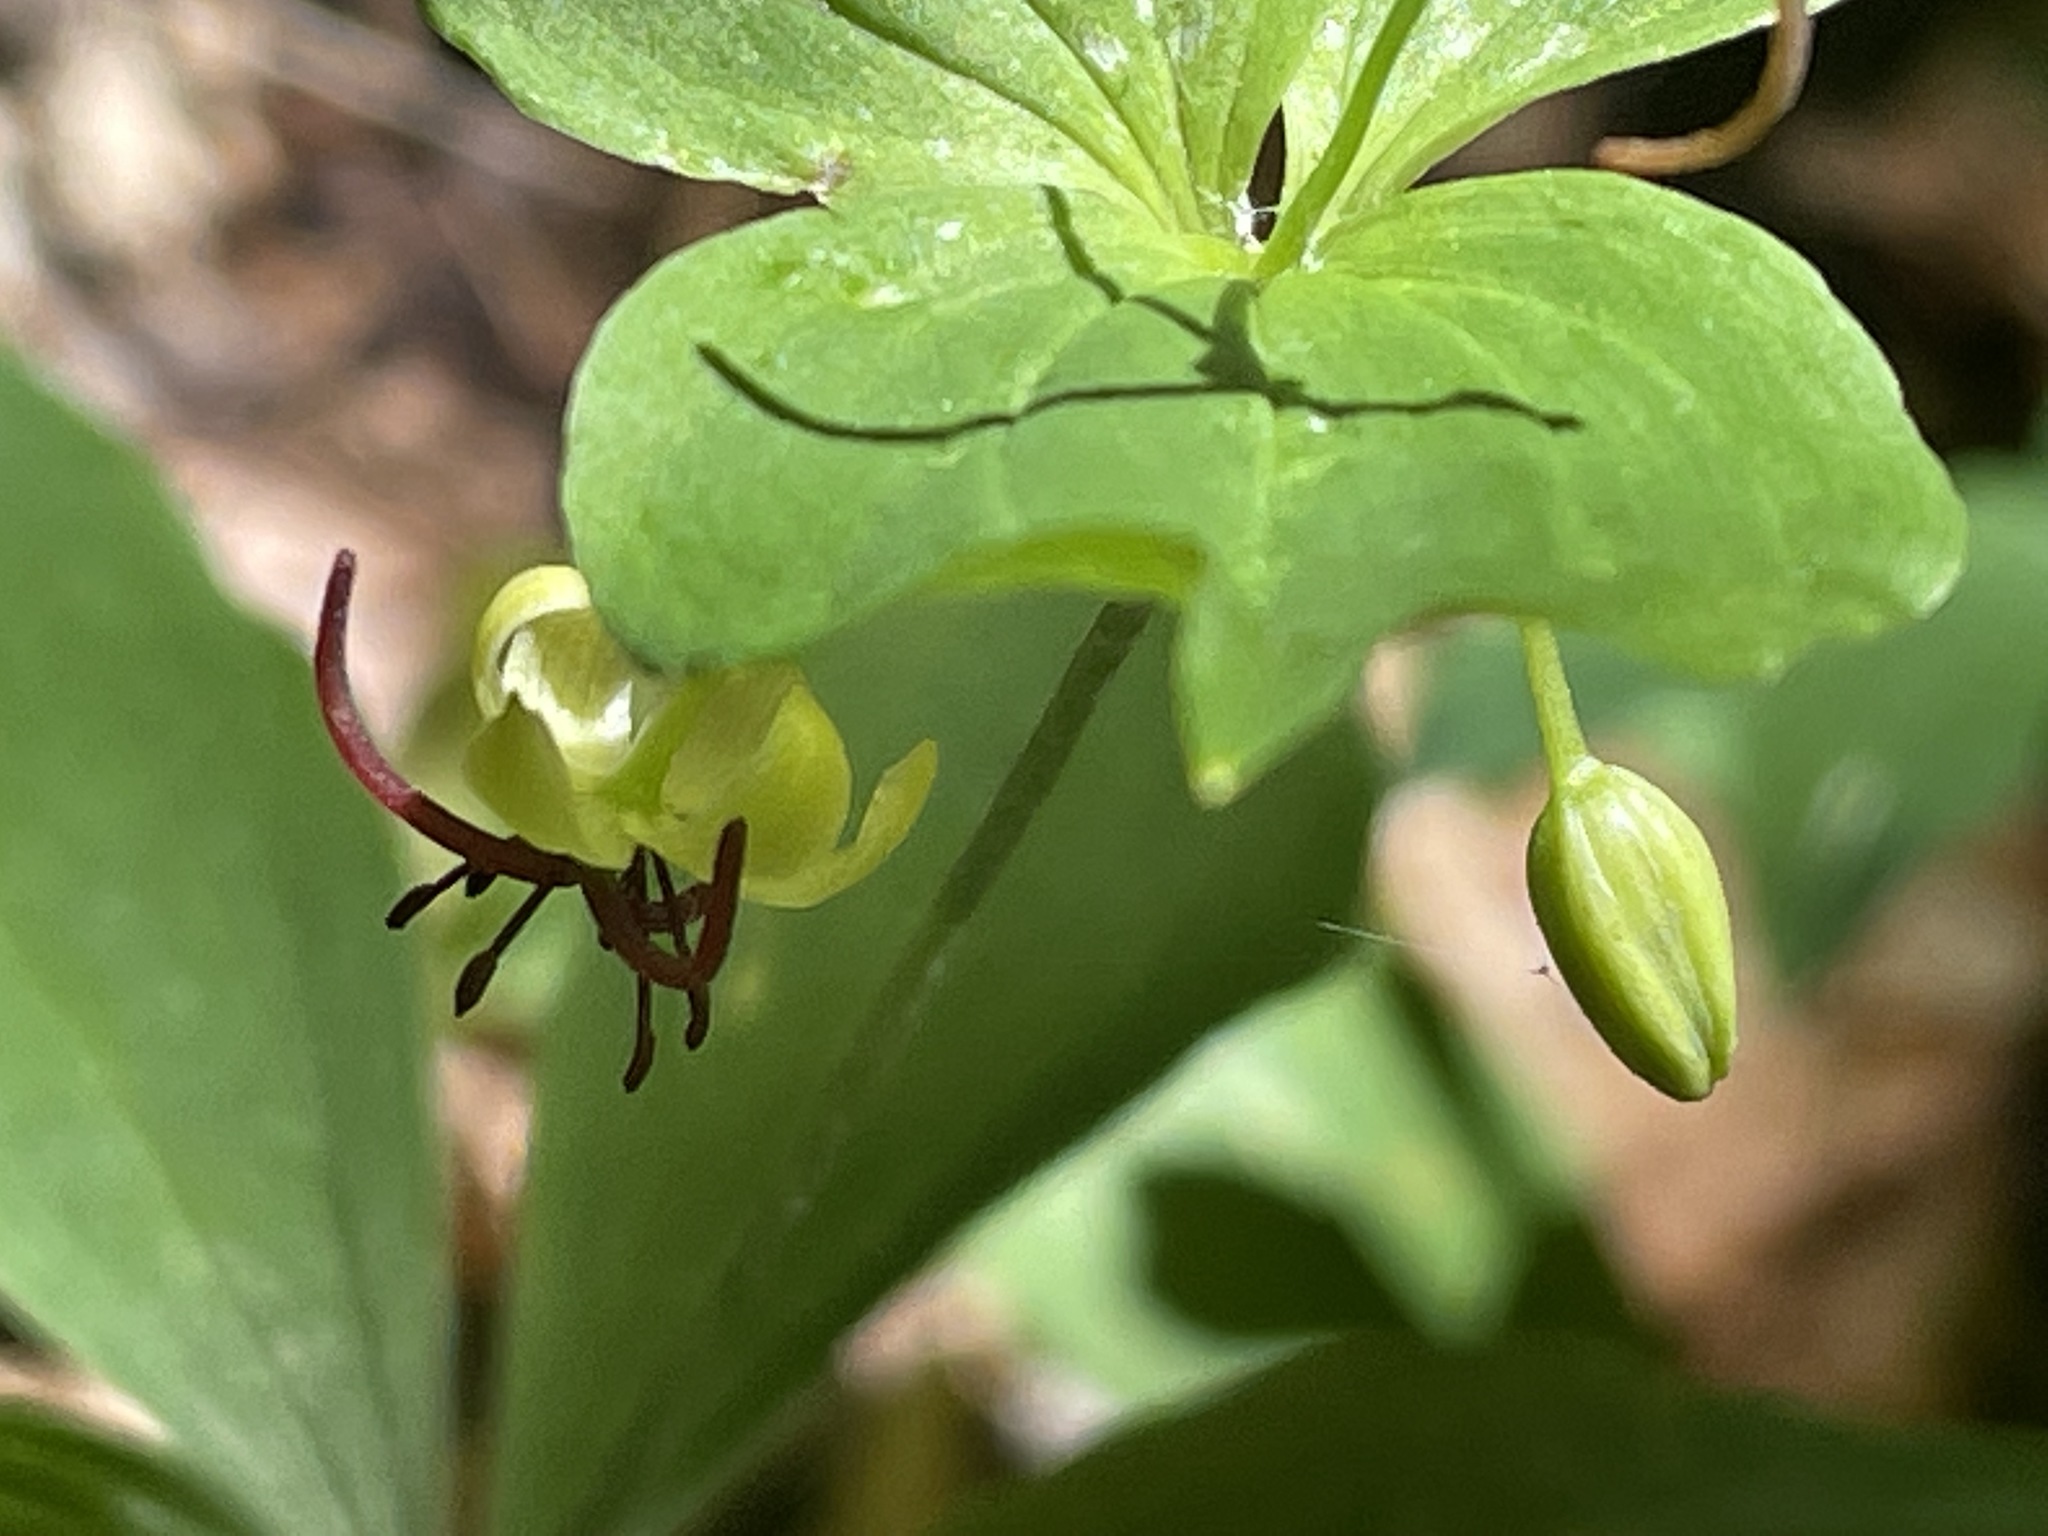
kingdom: Plantae
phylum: Tracheophyta
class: Liliopsida
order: Liliales
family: Liliaceae
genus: Medeola
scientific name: Medeola virginiana
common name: Indian cucumber-root
